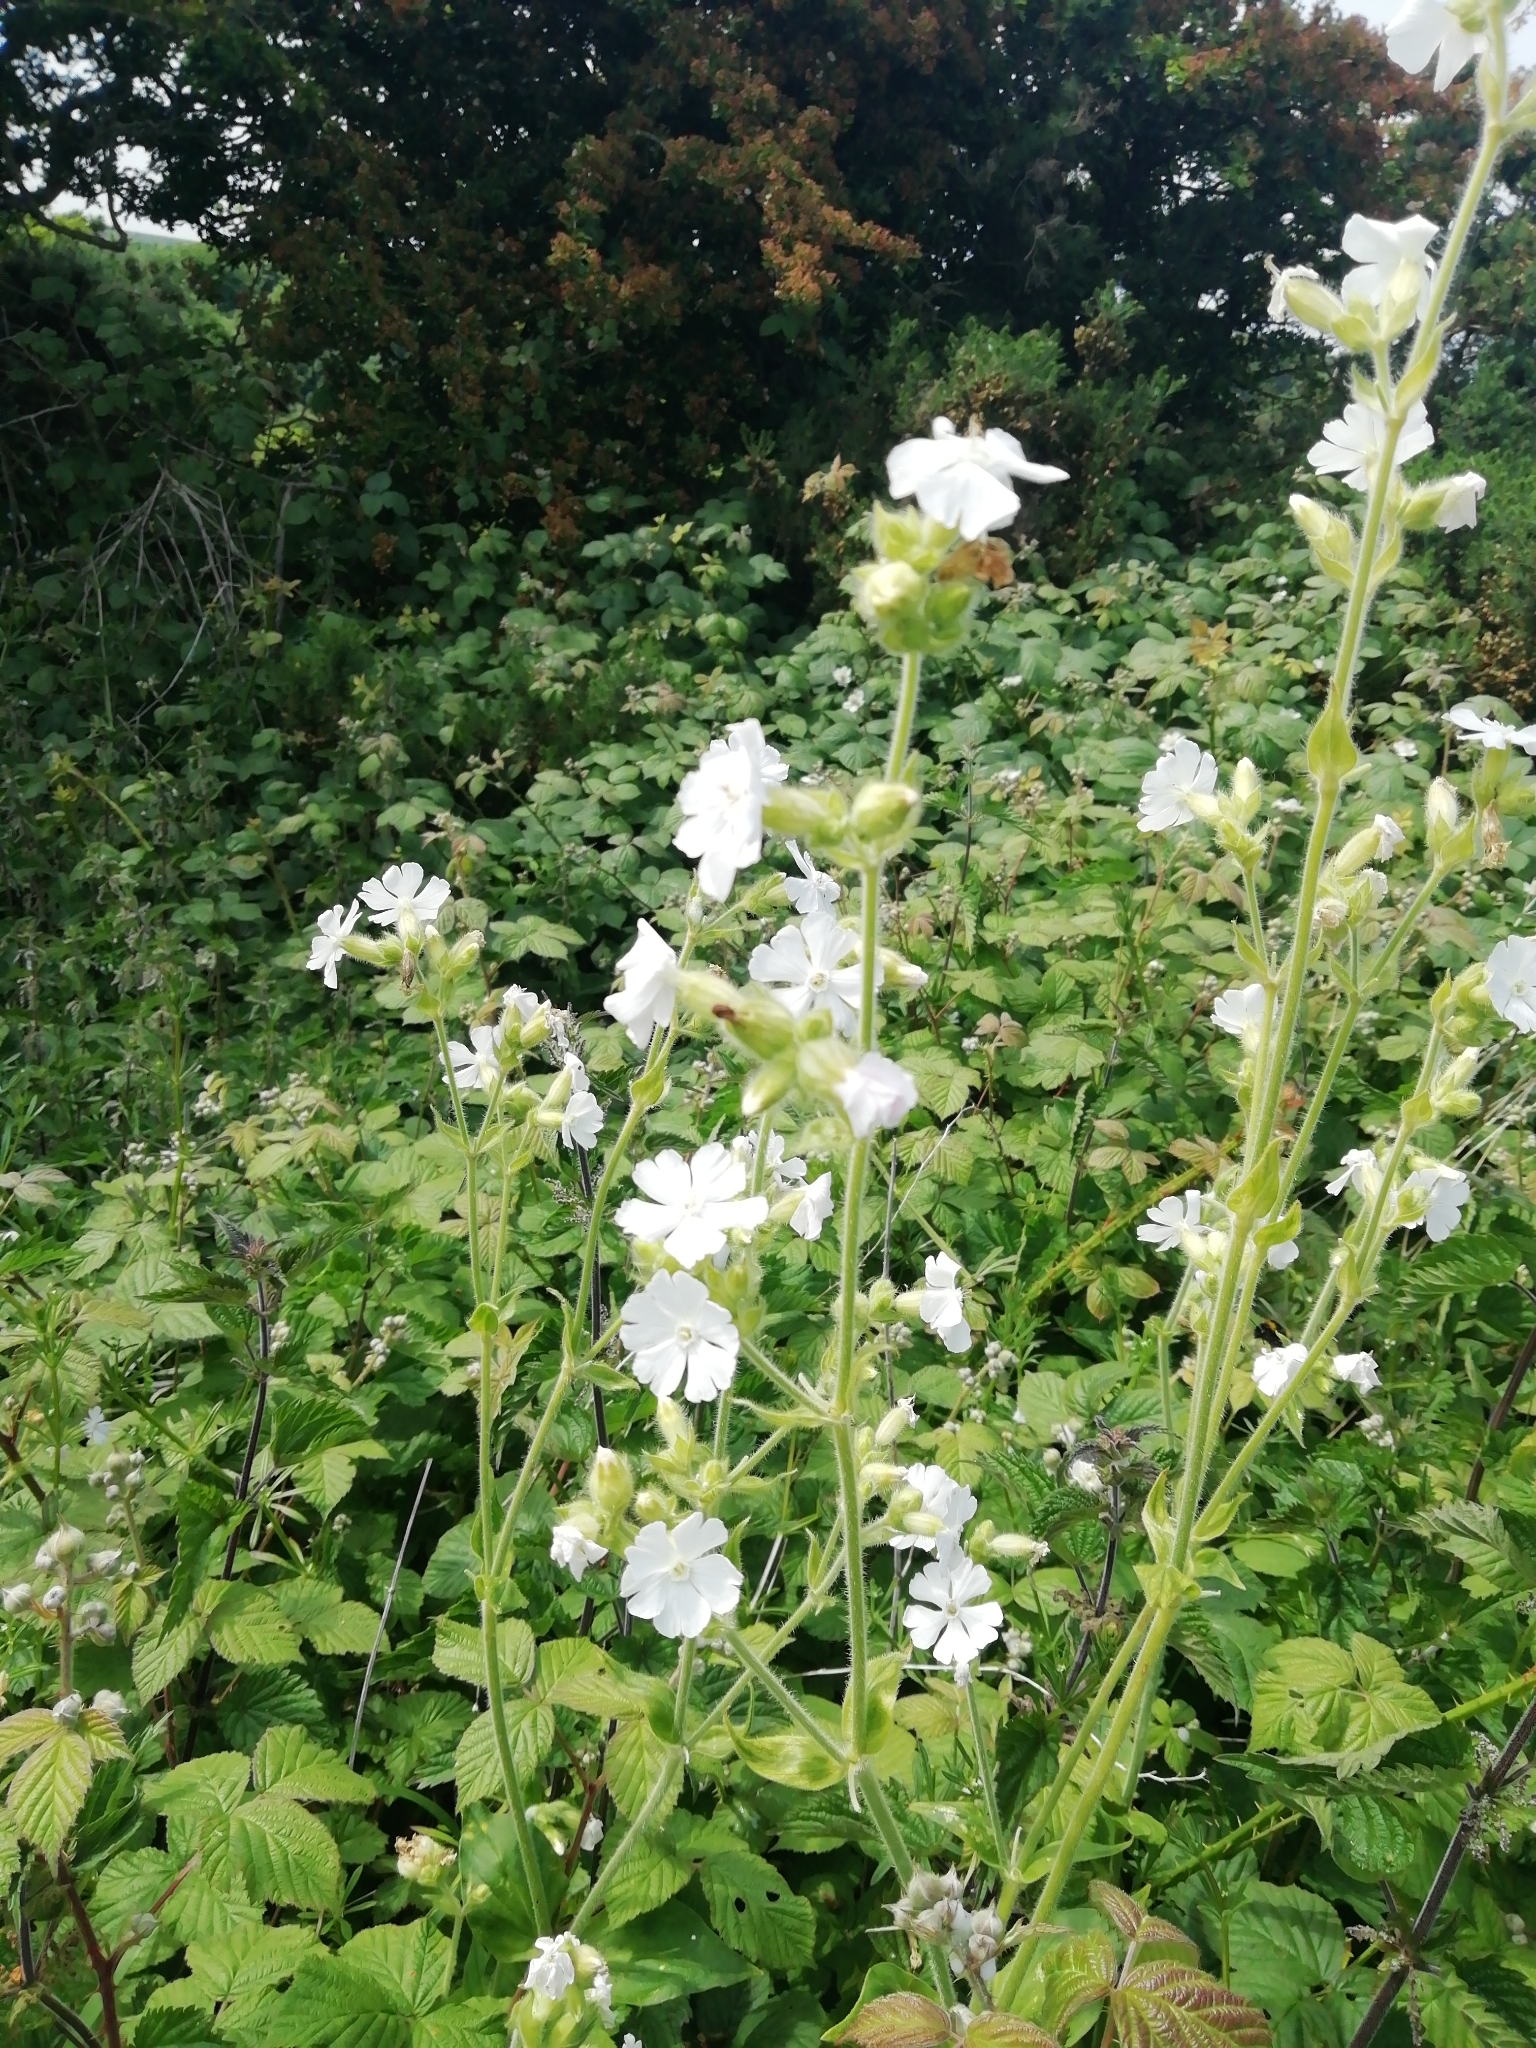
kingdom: Plantae
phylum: Tracheophyta
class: Magnoliopsida
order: Caryophyllales
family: Caryophyllaceae
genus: Silene
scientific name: Silene latifolia
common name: White campion
